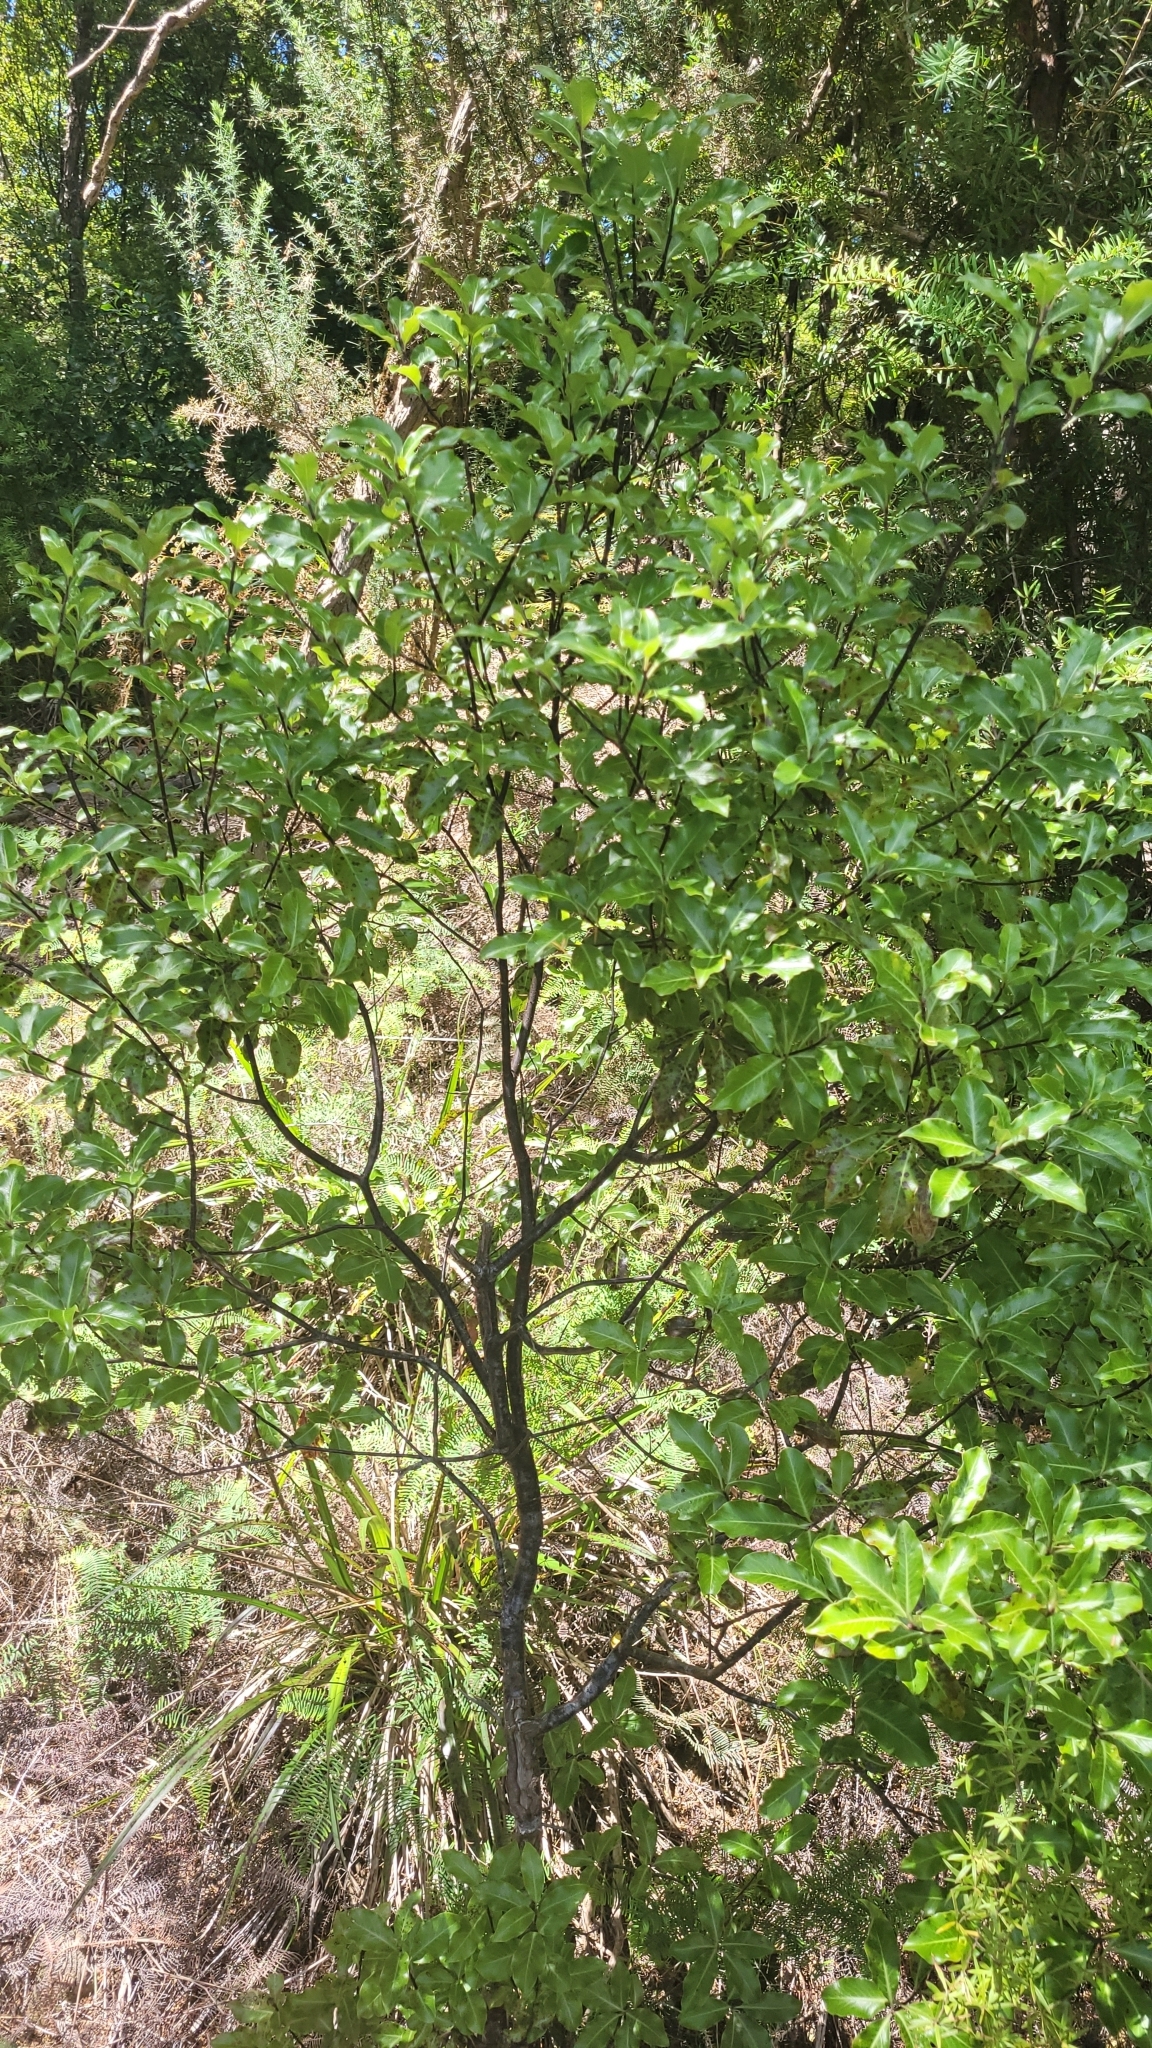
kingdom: Plantae
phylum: Tracheophyta
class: Magnoliopsida
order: Apiales
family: Pittosporaceae
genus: Pittosporum
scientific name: Pittosporum tenuifolium
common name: Kohuhu
